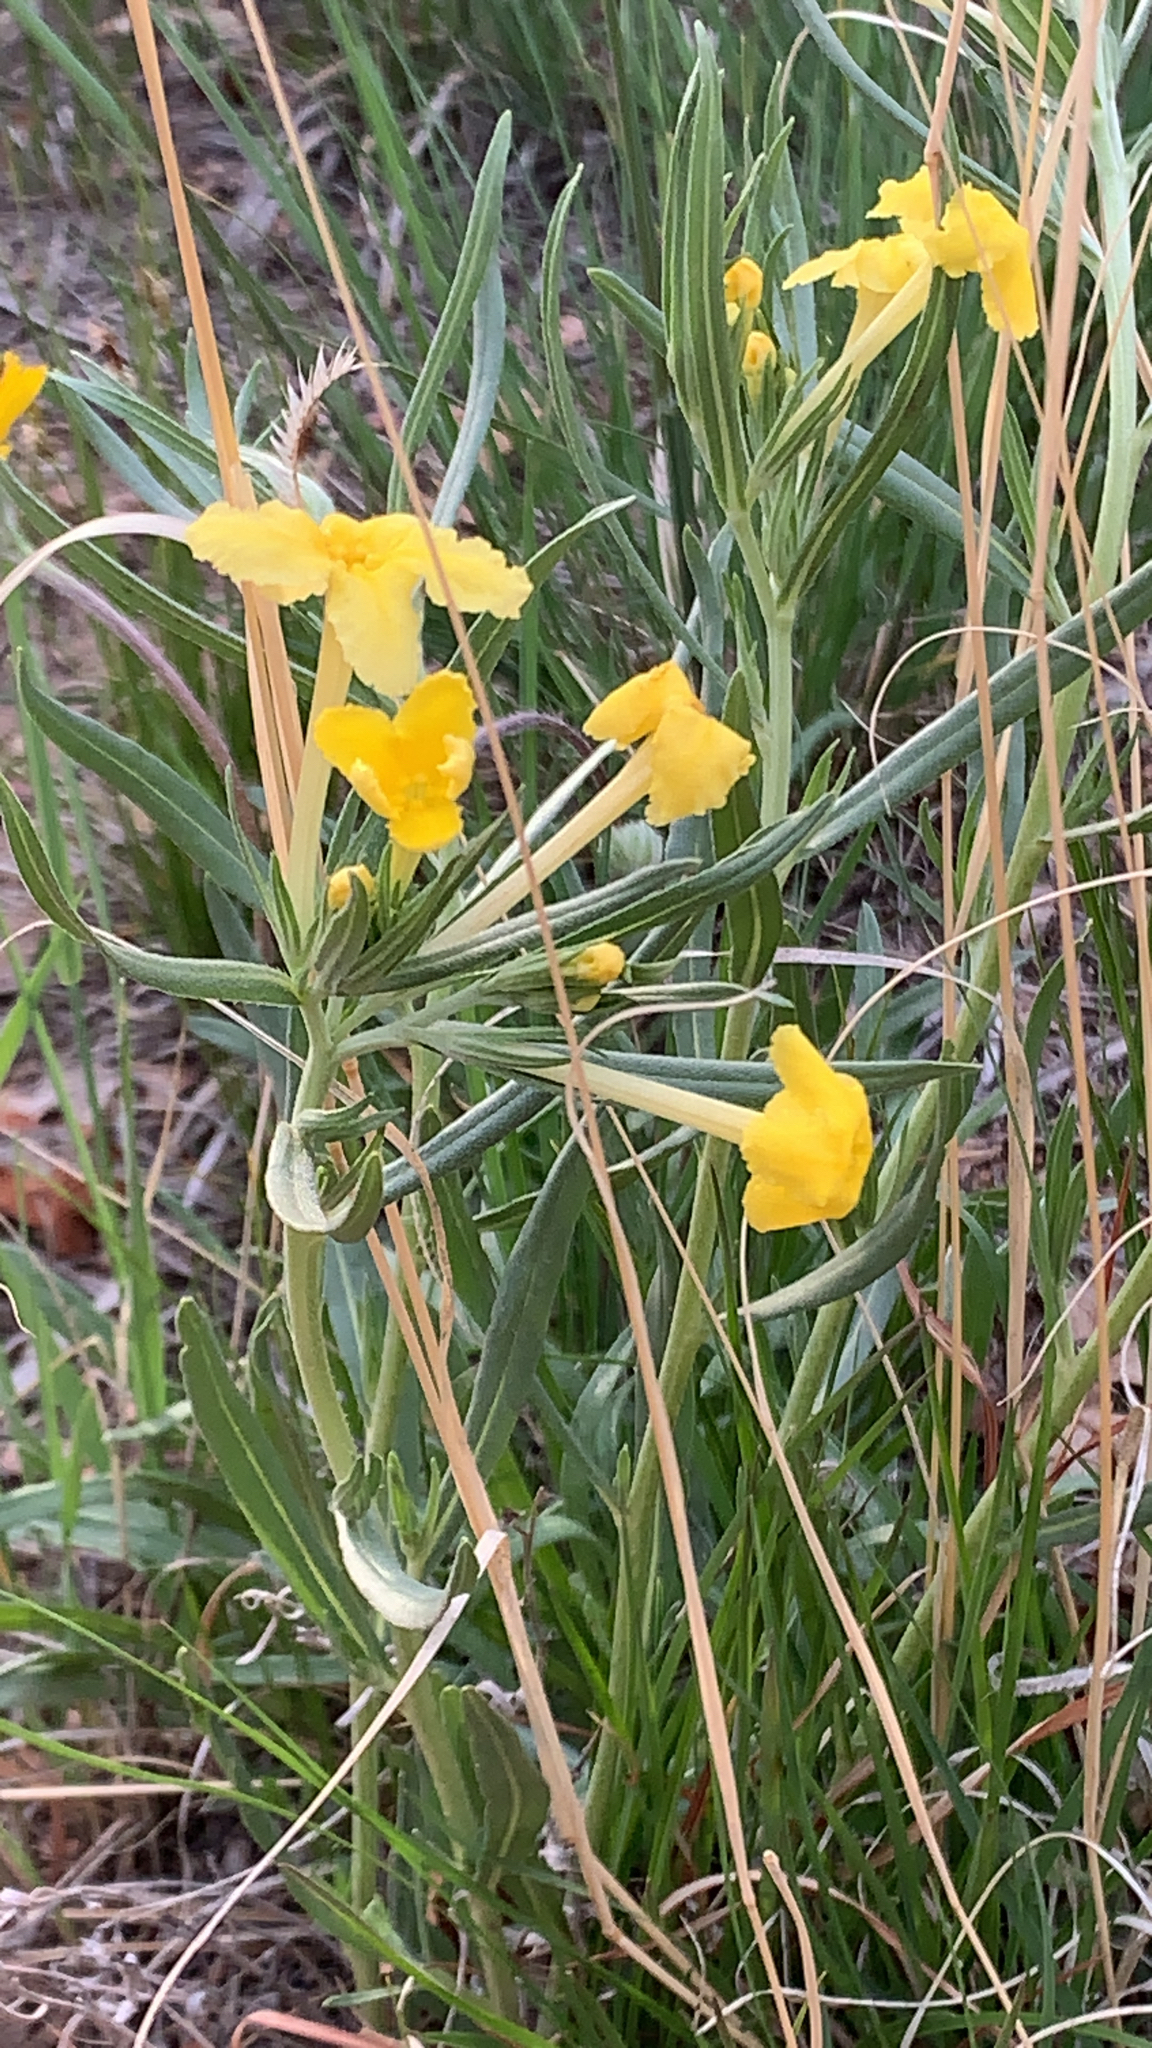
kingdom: Plantae
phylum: Tracheophyta
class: Magnoliopsida
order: Boraginales
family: Boraginaceae
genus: Lithospermum
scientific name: Lithospermum incisum
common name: Fringed gromwell
